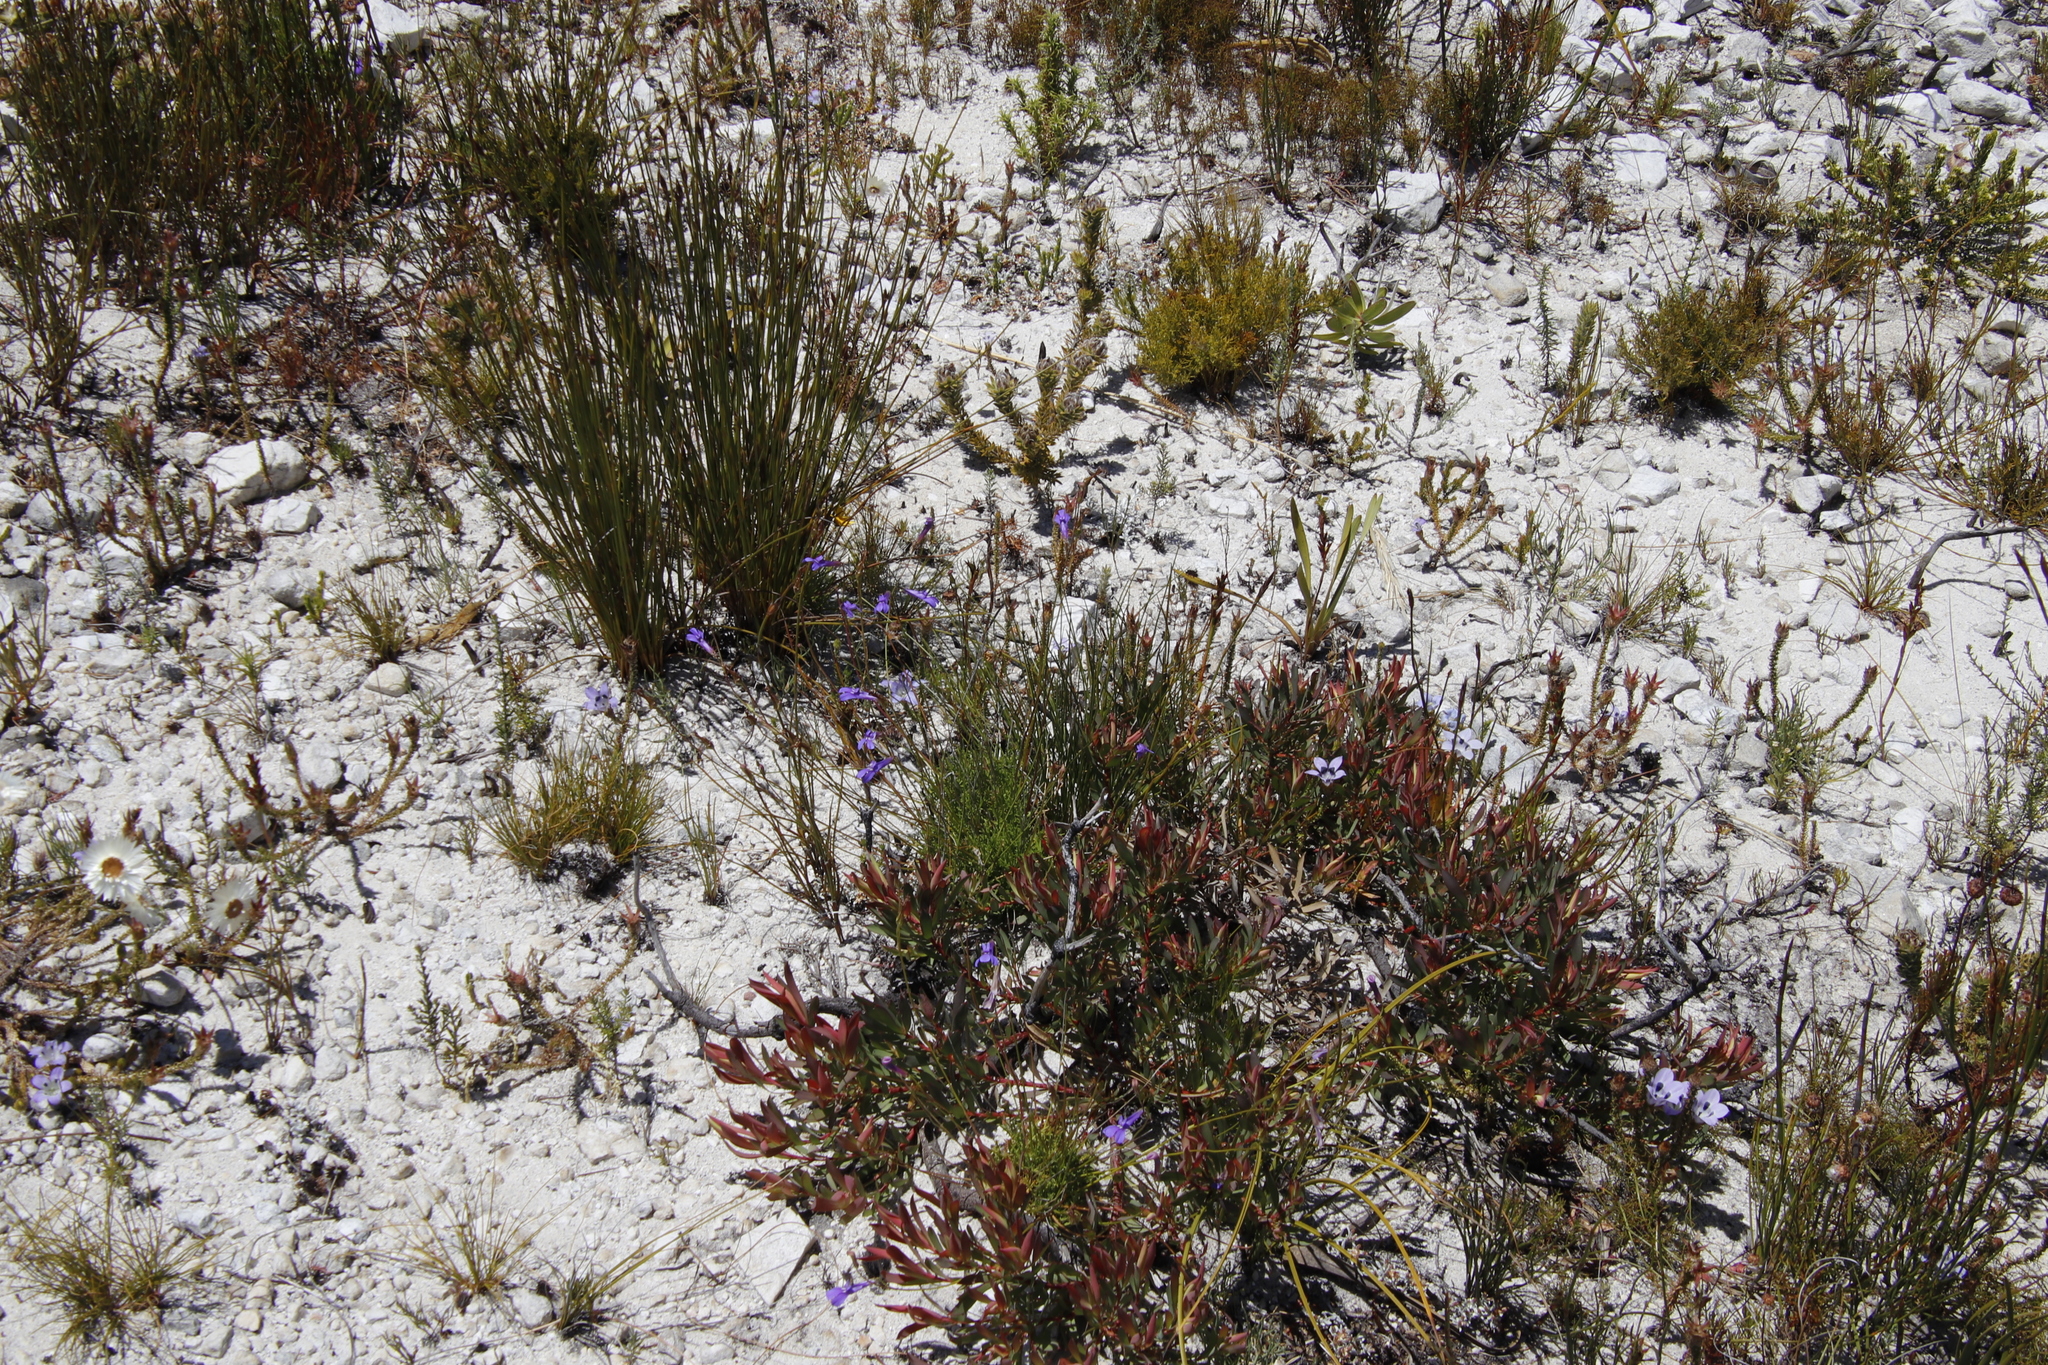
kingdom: Plantae
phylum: Tracheophyta
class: Magnoliopsida
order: Proteales
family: Proteaceae
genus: Leucadendron
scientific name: Leucadendron salignum
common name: Common sunshine conebush
